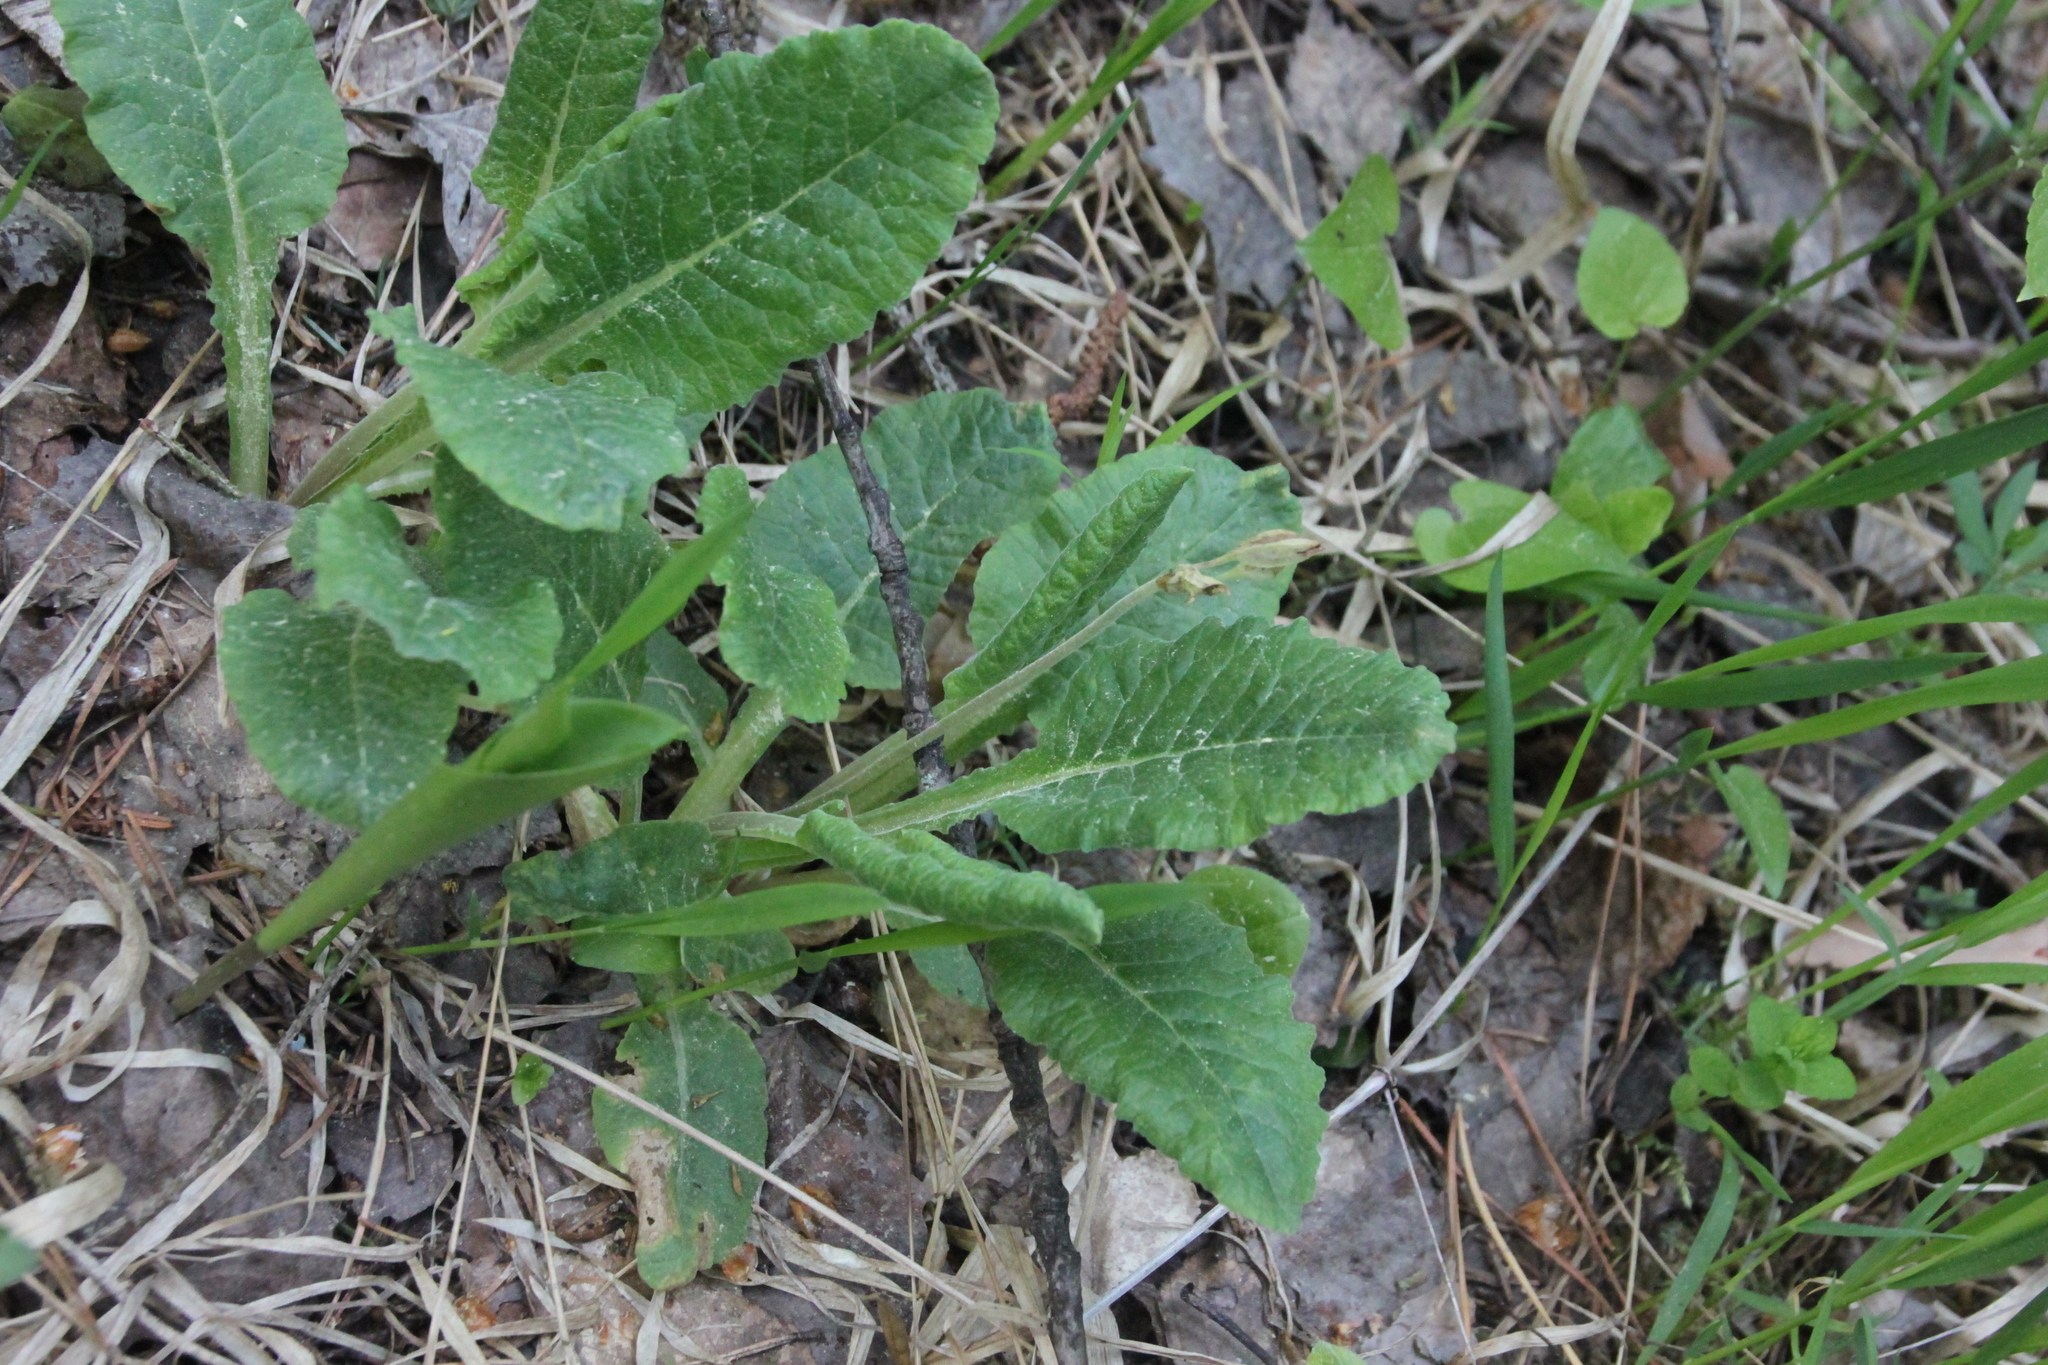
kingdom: Plantae
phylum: Tracheophyta
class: Magnoliopsida
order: Ericales
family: Primulaceae
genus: Primula
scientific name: Primula veris
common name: Cowslip
